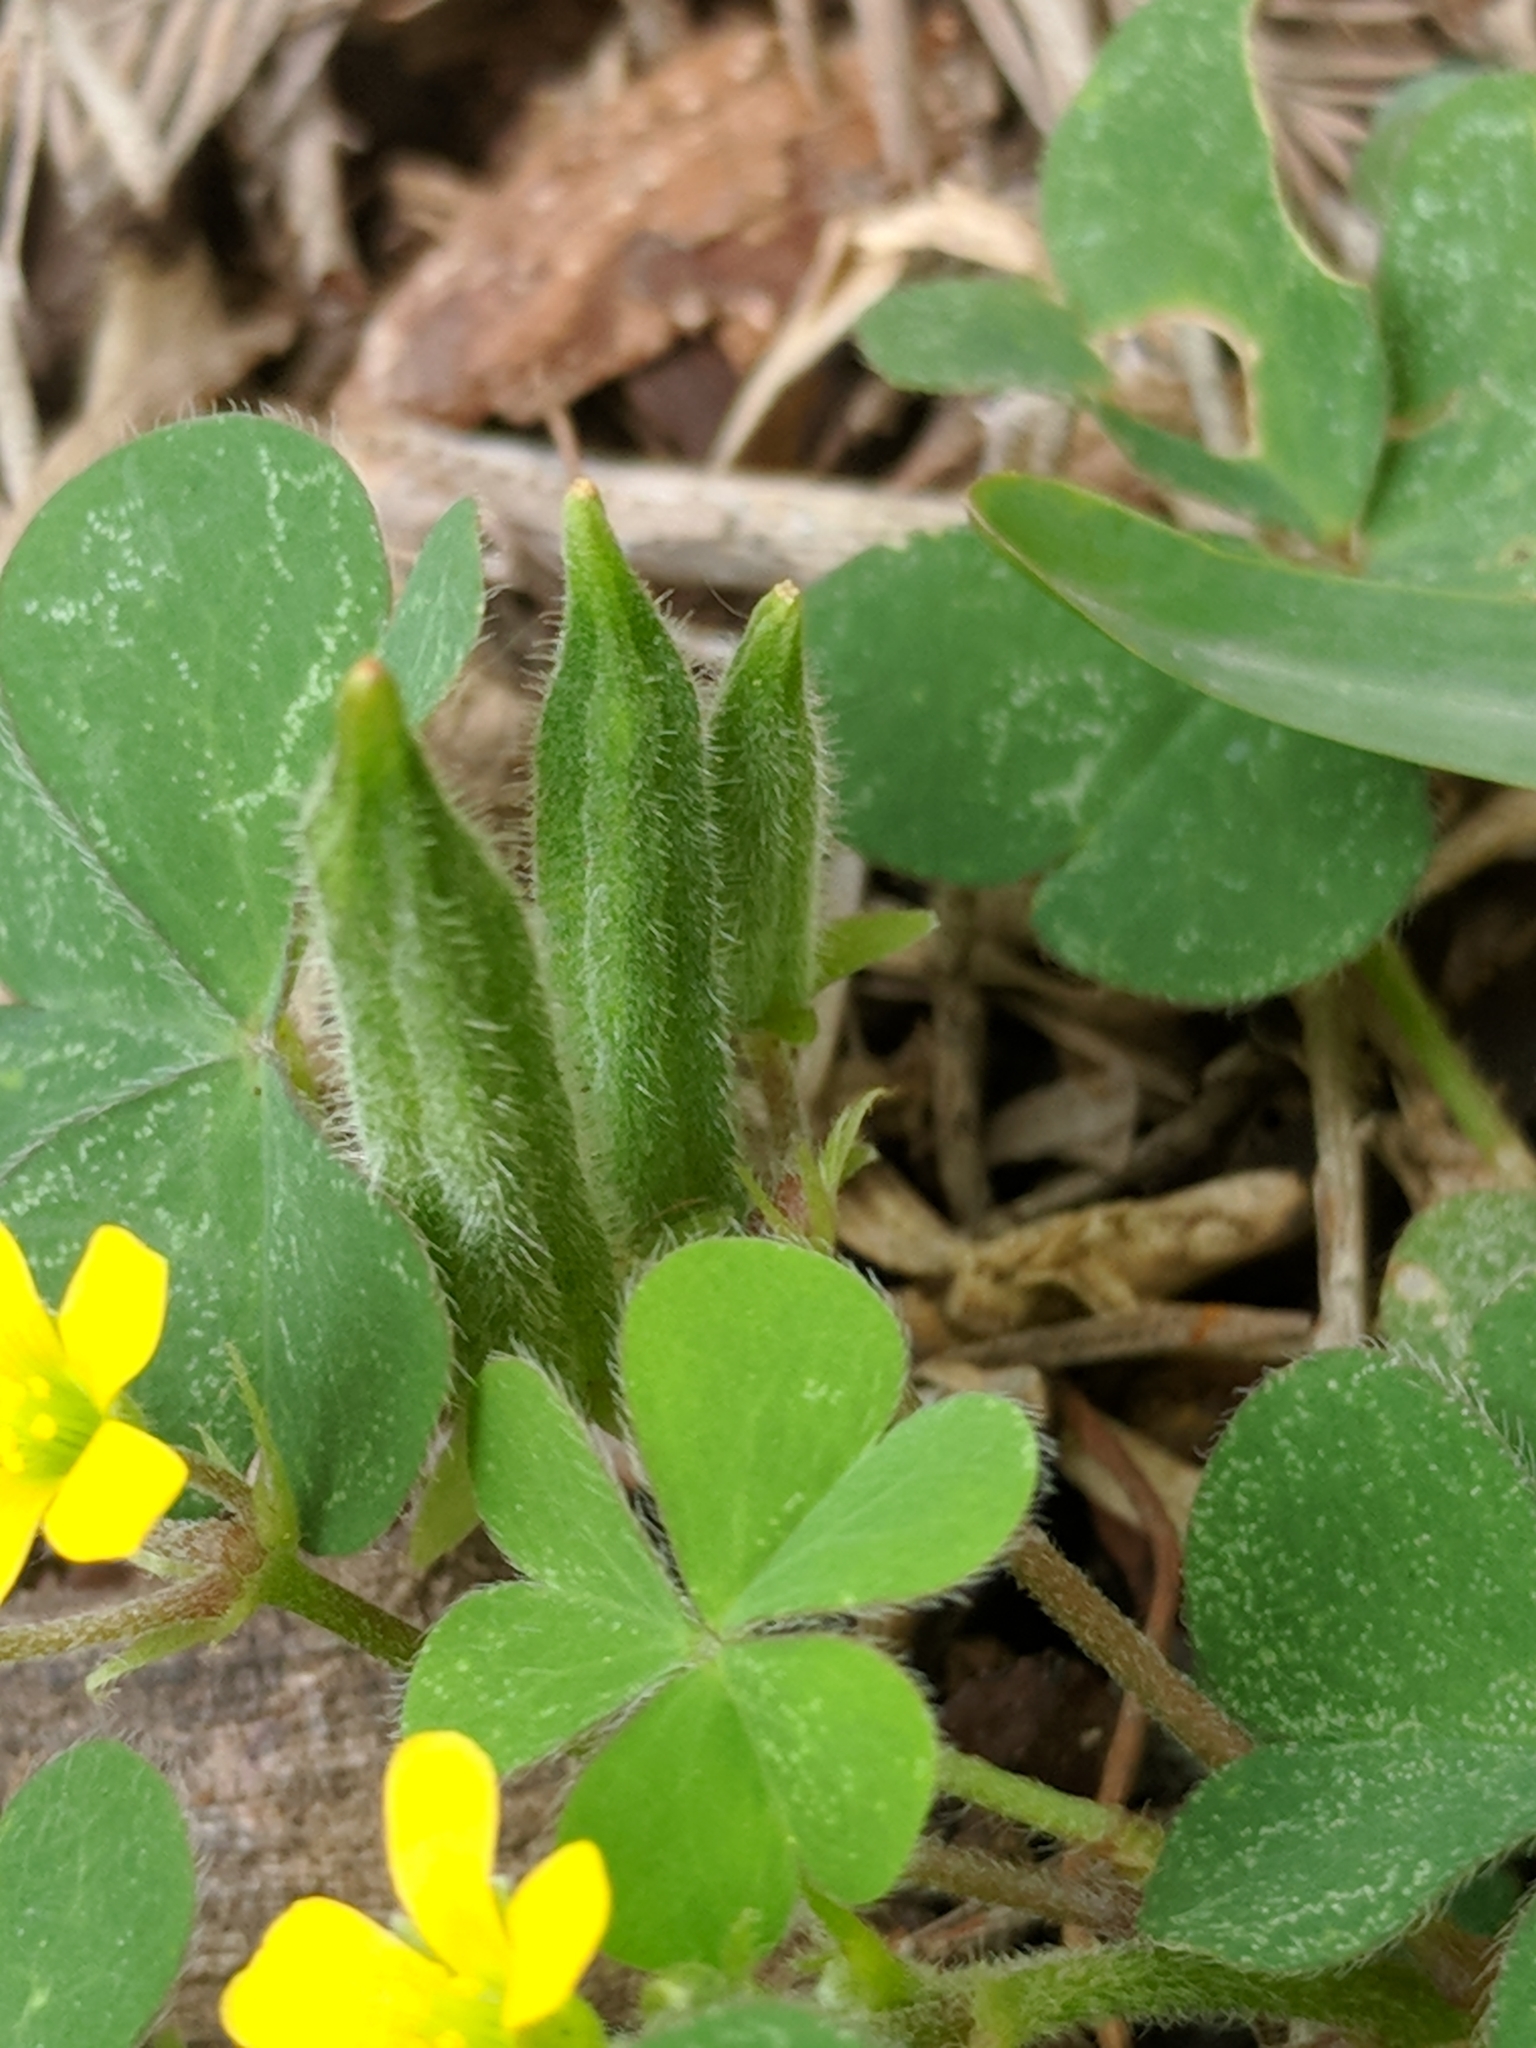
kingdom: Plantae
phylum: Tracheophyta
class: Magnoliopsida
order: Oxalidales
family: Oxalidaceae
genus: Oxalis
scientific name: Oxalis corniculata
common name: Procumbent yellow-sorrel
